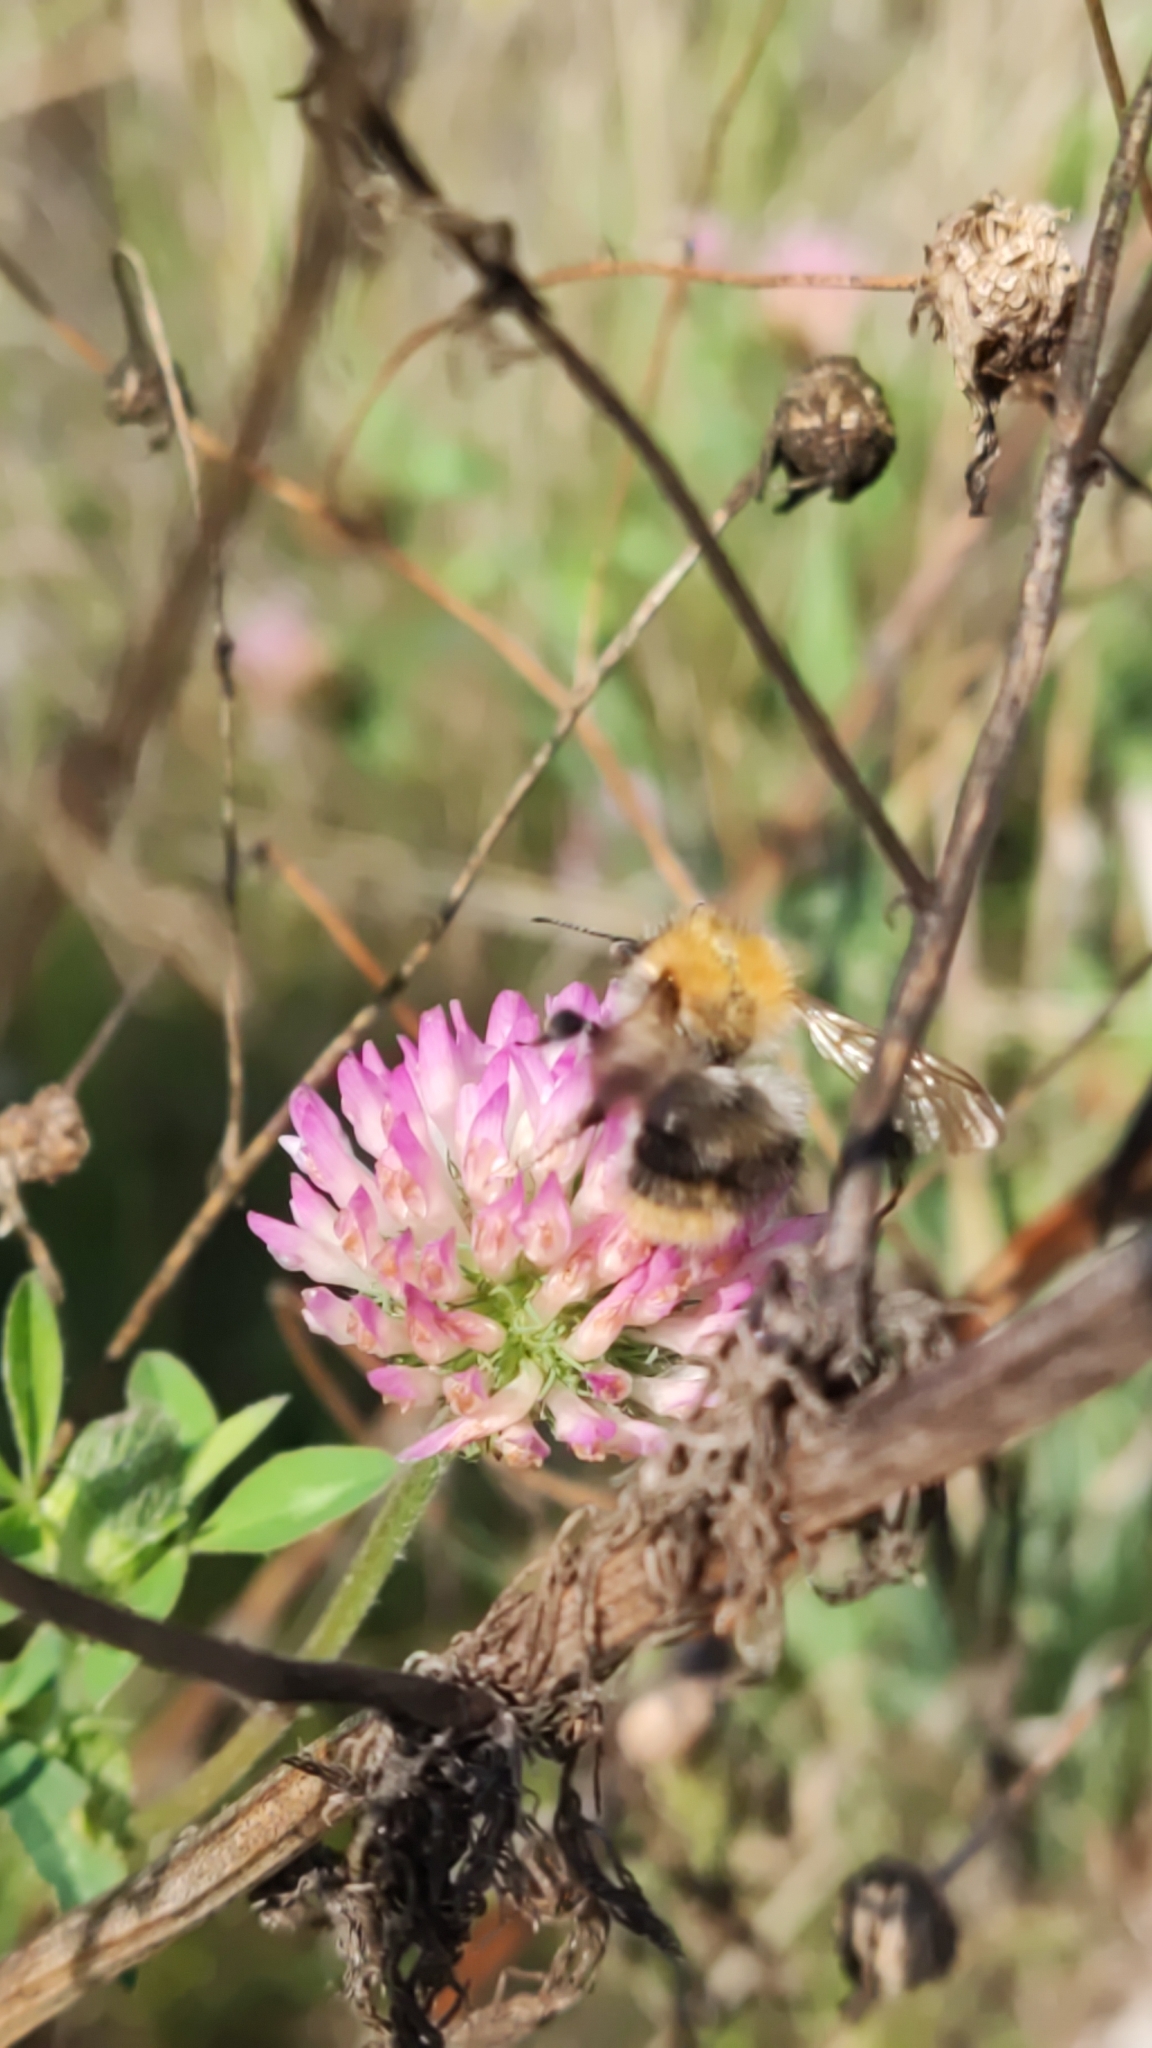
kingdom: Animalia
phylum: Arthropoda
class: Insecta
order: Hymenoptera
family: Apidae
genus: Bombus
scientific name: Bombus pascuorum
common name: Common carder bee
